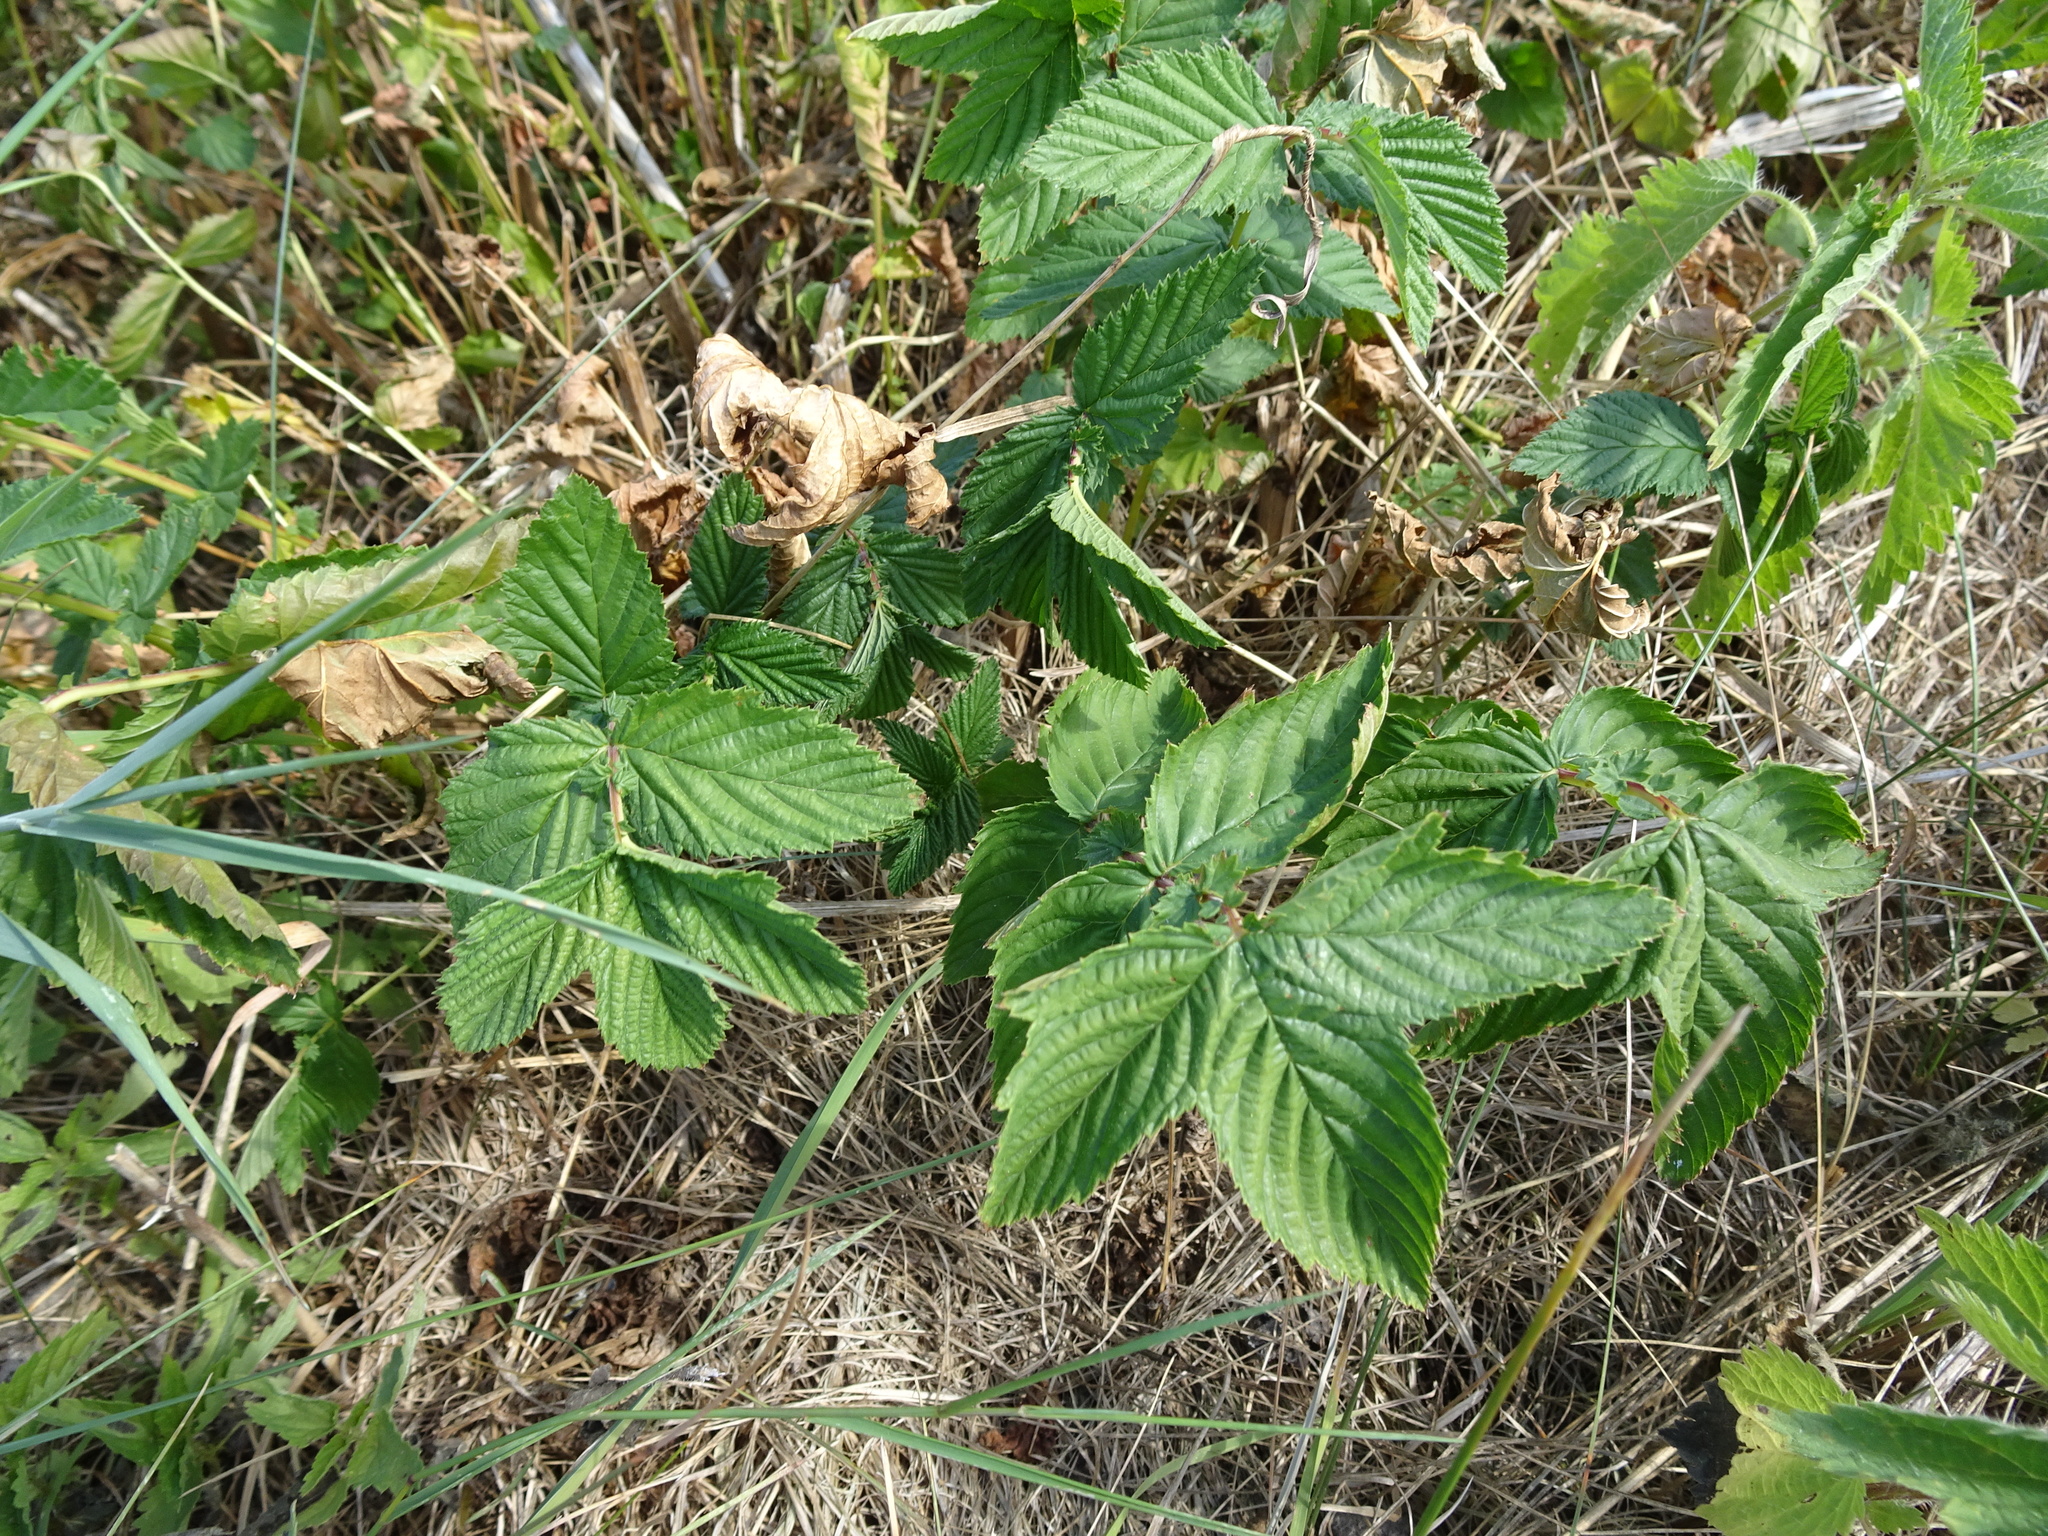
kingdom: Plantae
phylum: Tracheophyta
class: Magnoliopsida
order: Rosales
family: Rosaceae
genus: Filipendula
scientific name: Filipendula ulmaria
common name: Meadowsweet
